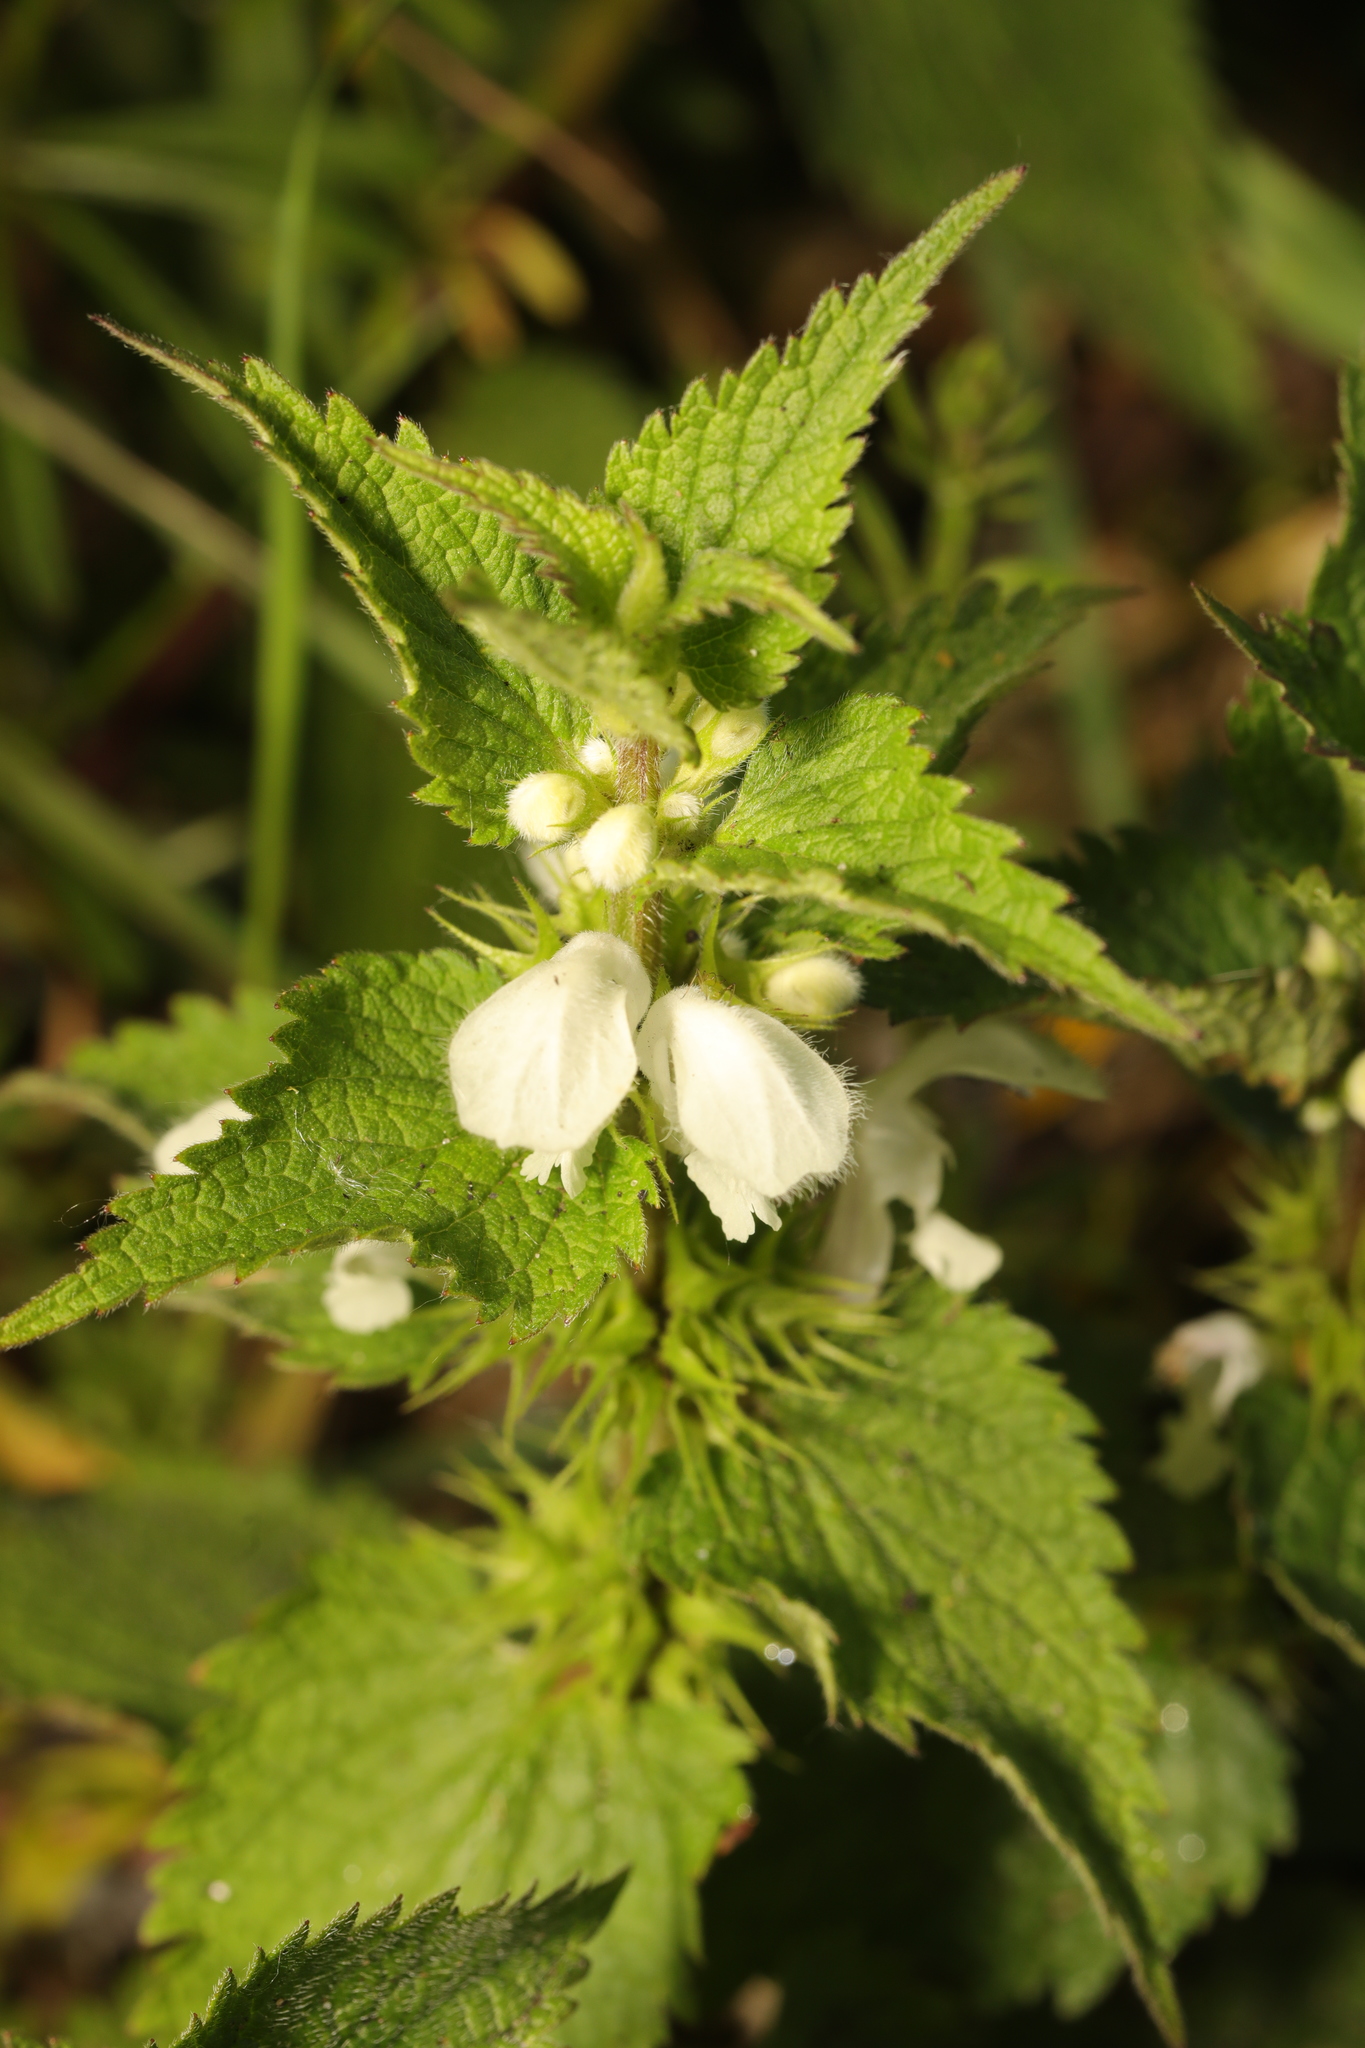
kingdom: Plantae
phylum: Tracheophyta
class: Magnoliopsida
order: Lamiales
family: Lamiaceae
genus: Lamium
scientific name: Lamium album
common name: White dead-nettle
